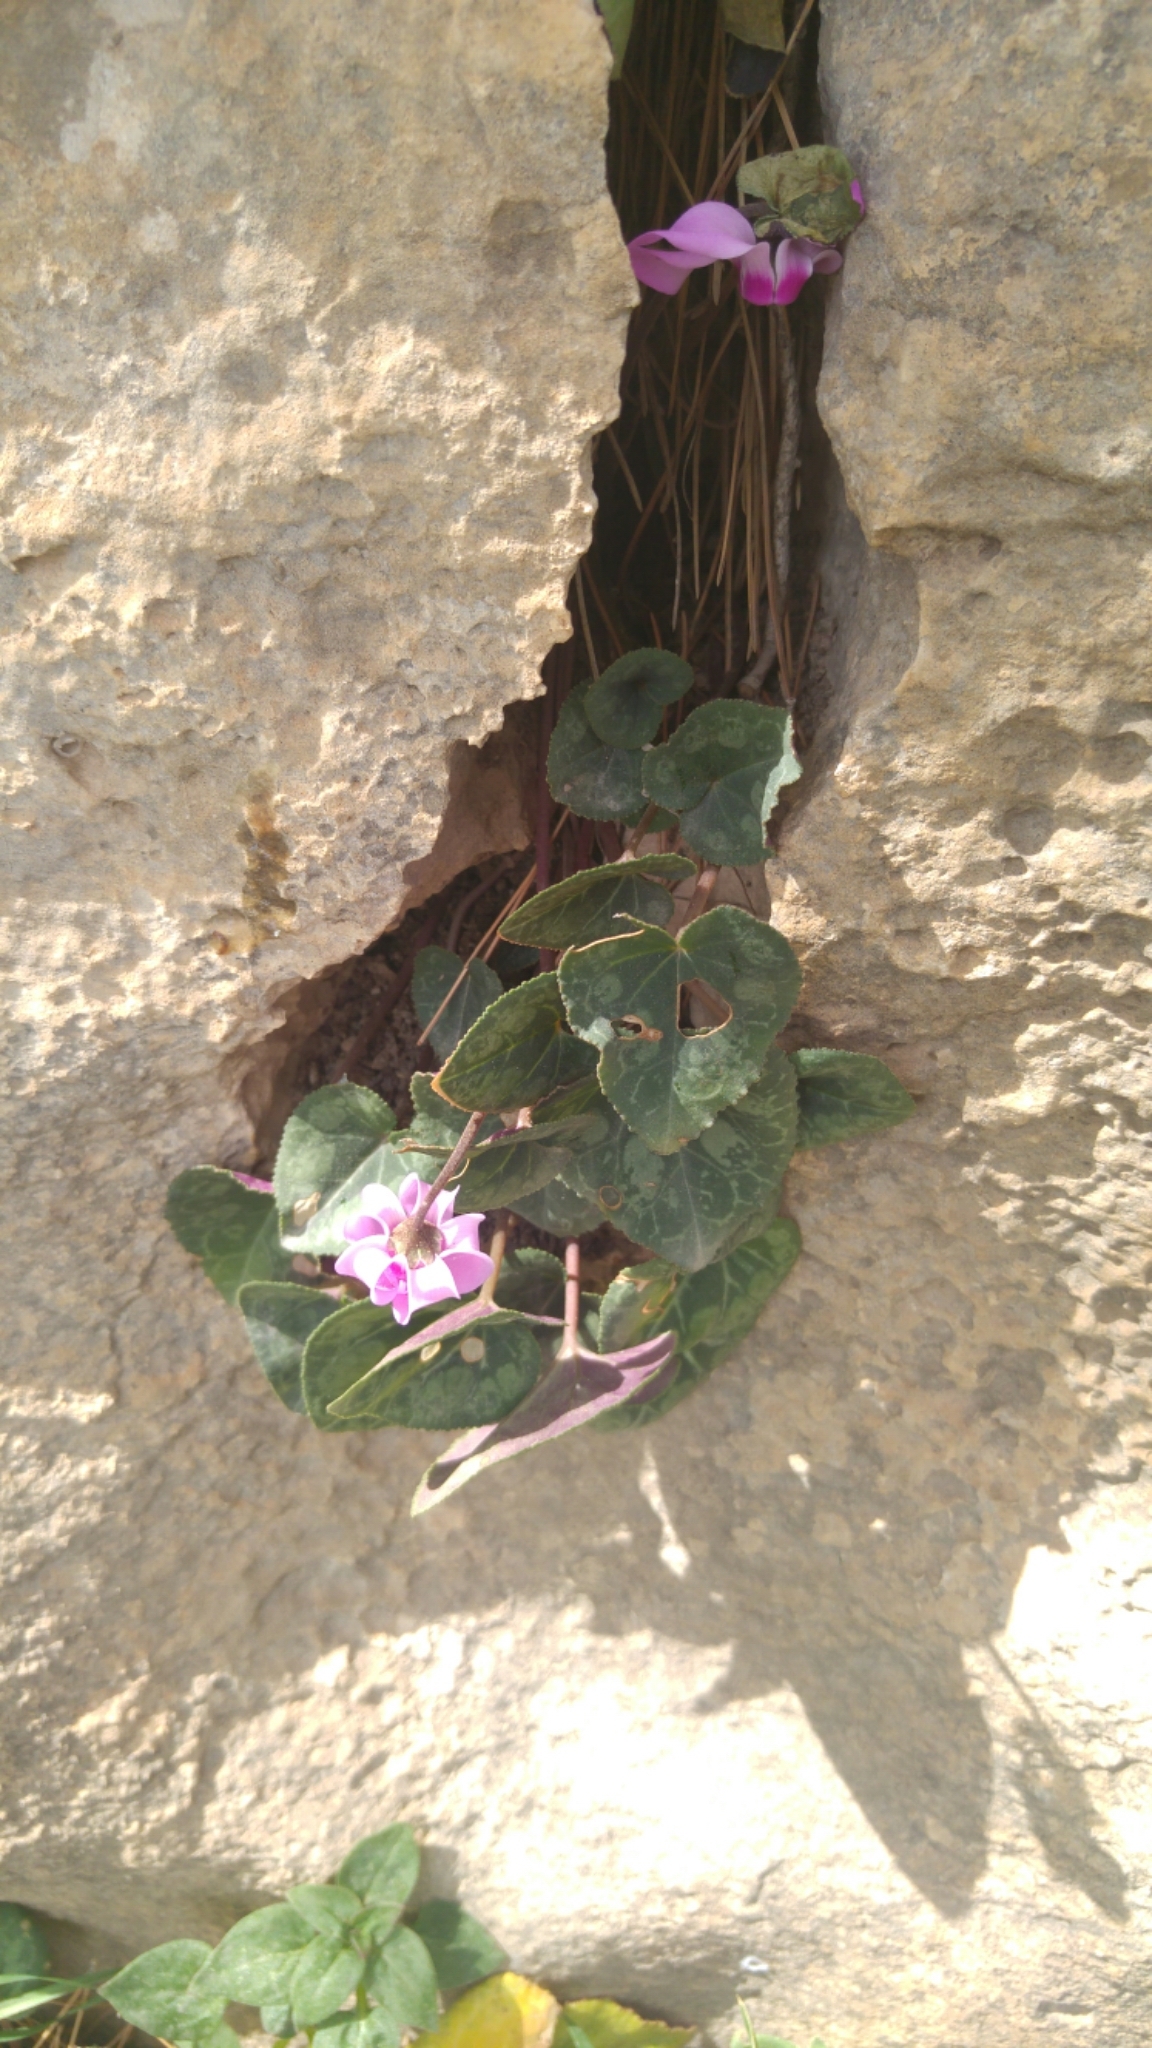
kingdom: Plantae
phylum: Tracheophyta
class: Magnoliopsida
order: Ericales
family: Primulaceae
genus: Cyclamen
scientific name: Cyclamen persicum
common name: Florist's cyclamen
